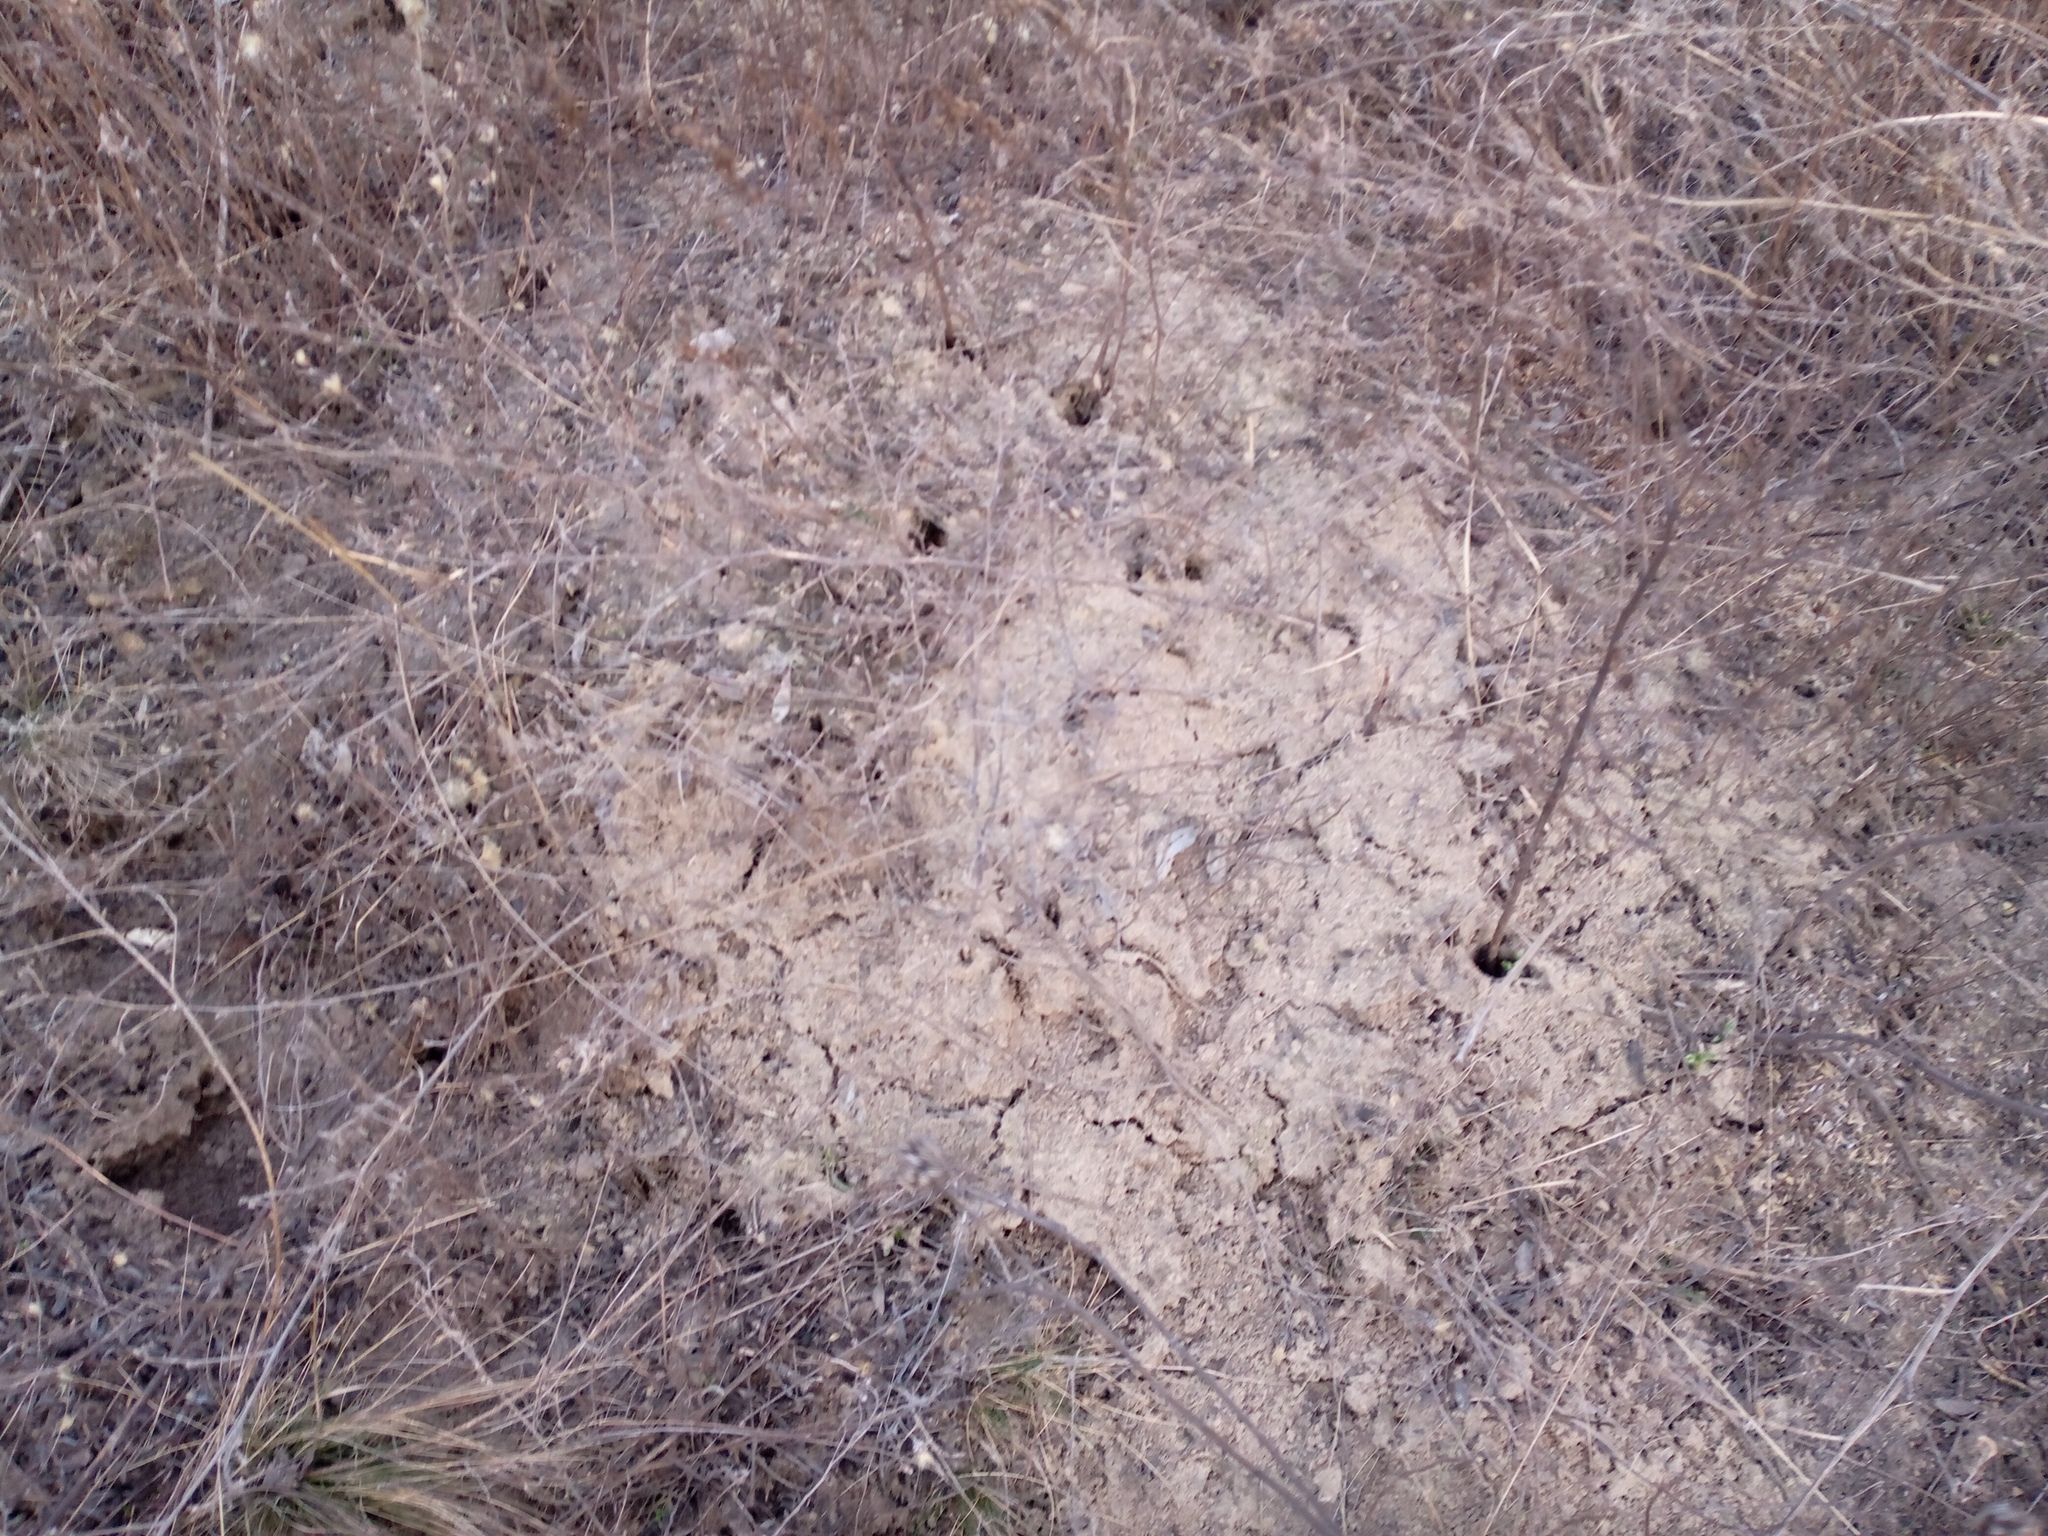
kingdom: Animalia
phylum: Chordata
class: Mammalia
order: Rodentia
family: Muridae
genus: Mus
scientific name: Mus spicilegus
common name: Mound-building mouse
